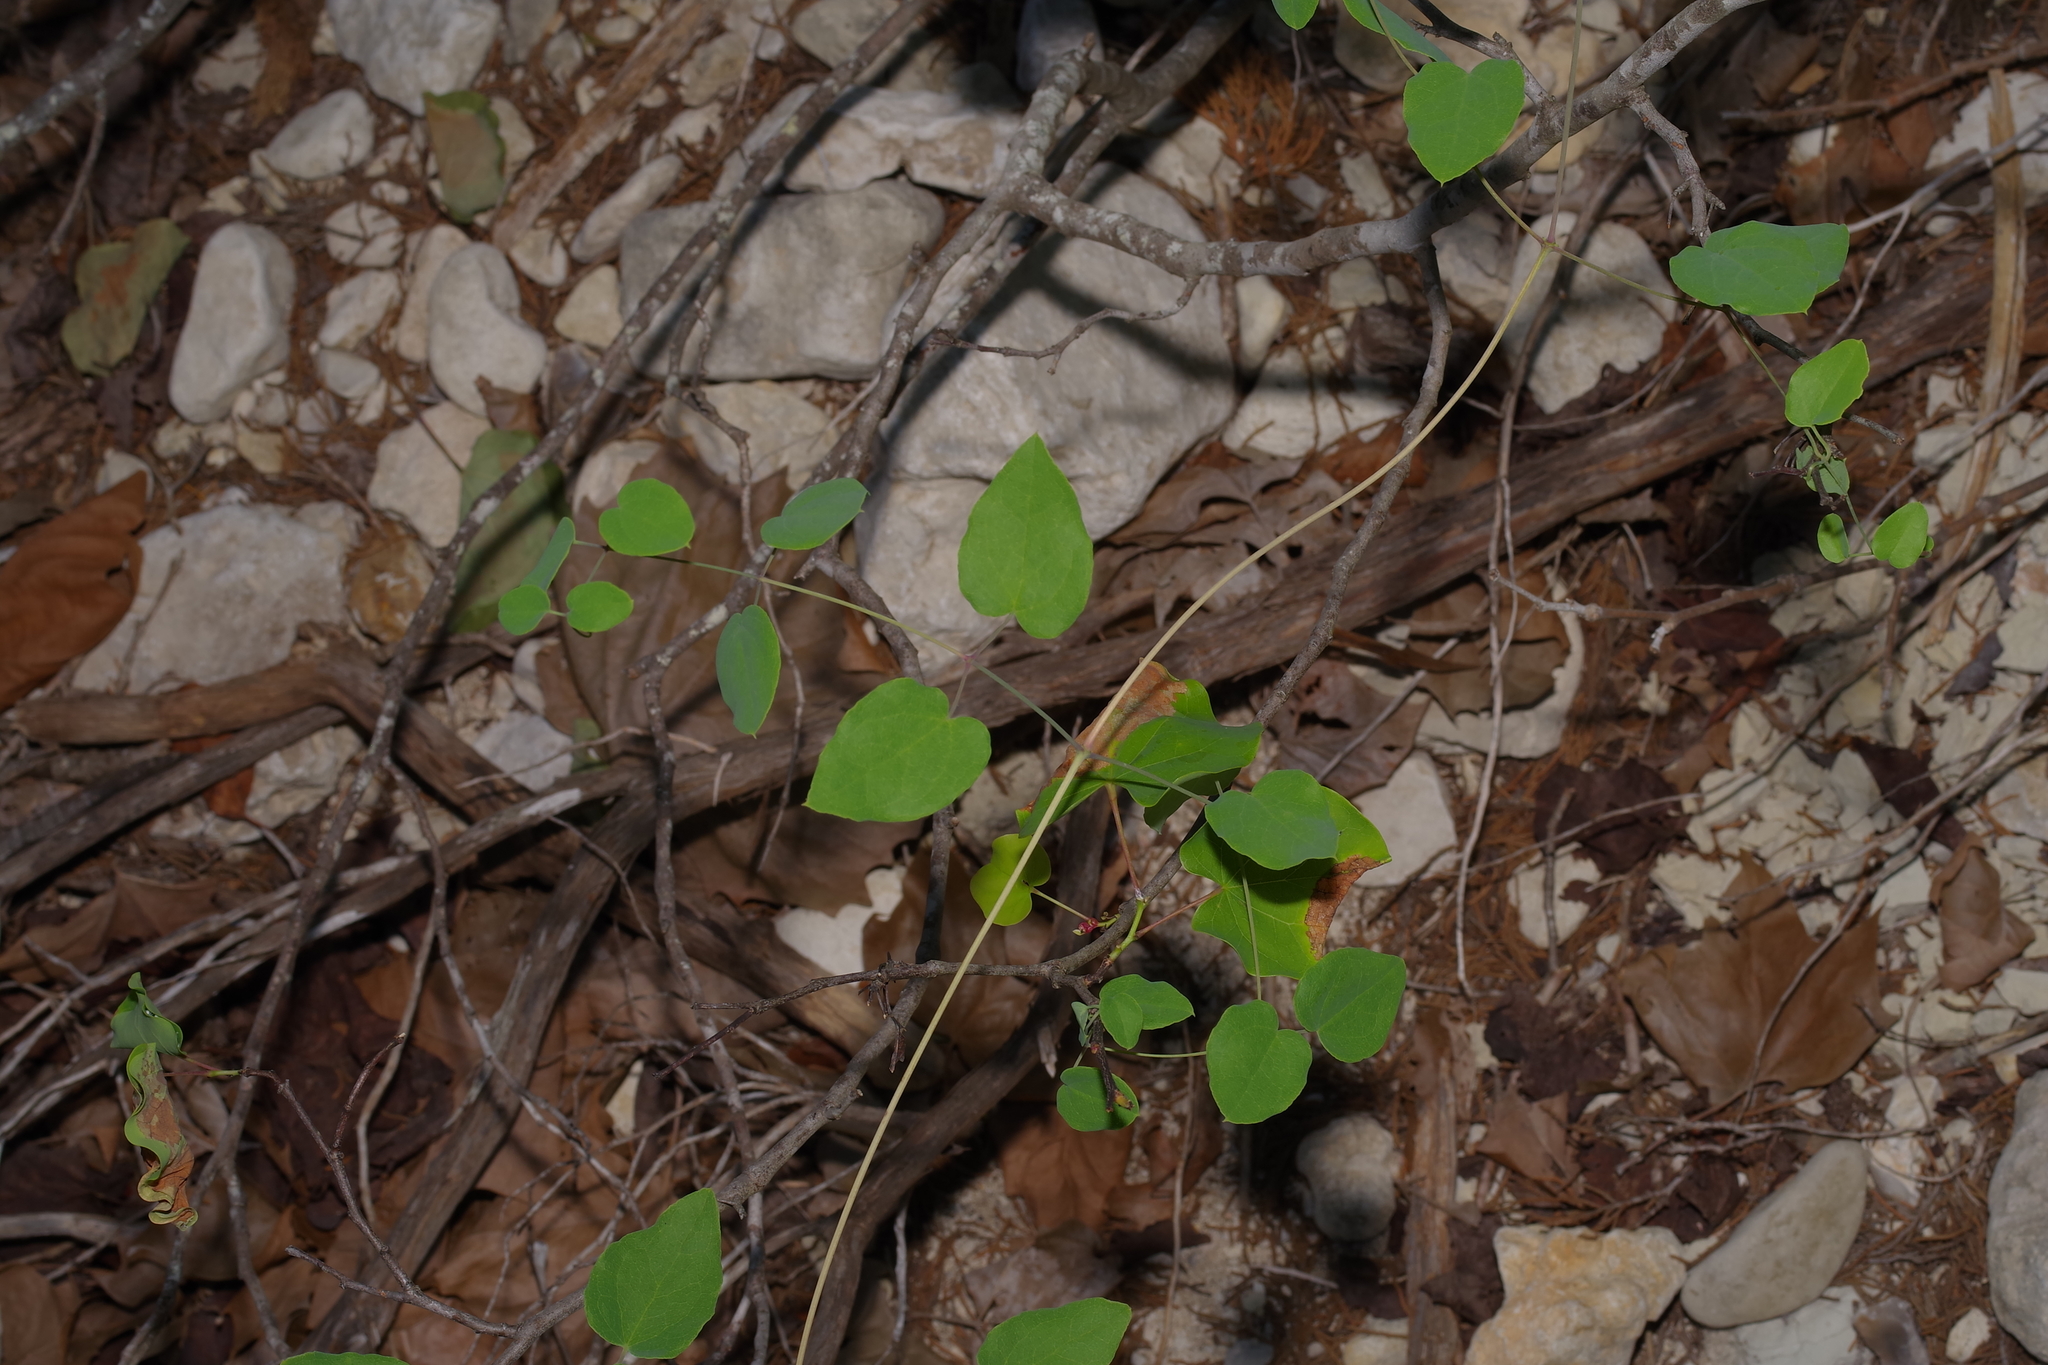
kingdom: Plantae
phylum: Tracheophyta
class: Magnoliopsida
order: Ranunculales
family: Ranunculaceae
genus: Clematis
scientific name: Clematis texensis
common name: Crimson clematis
